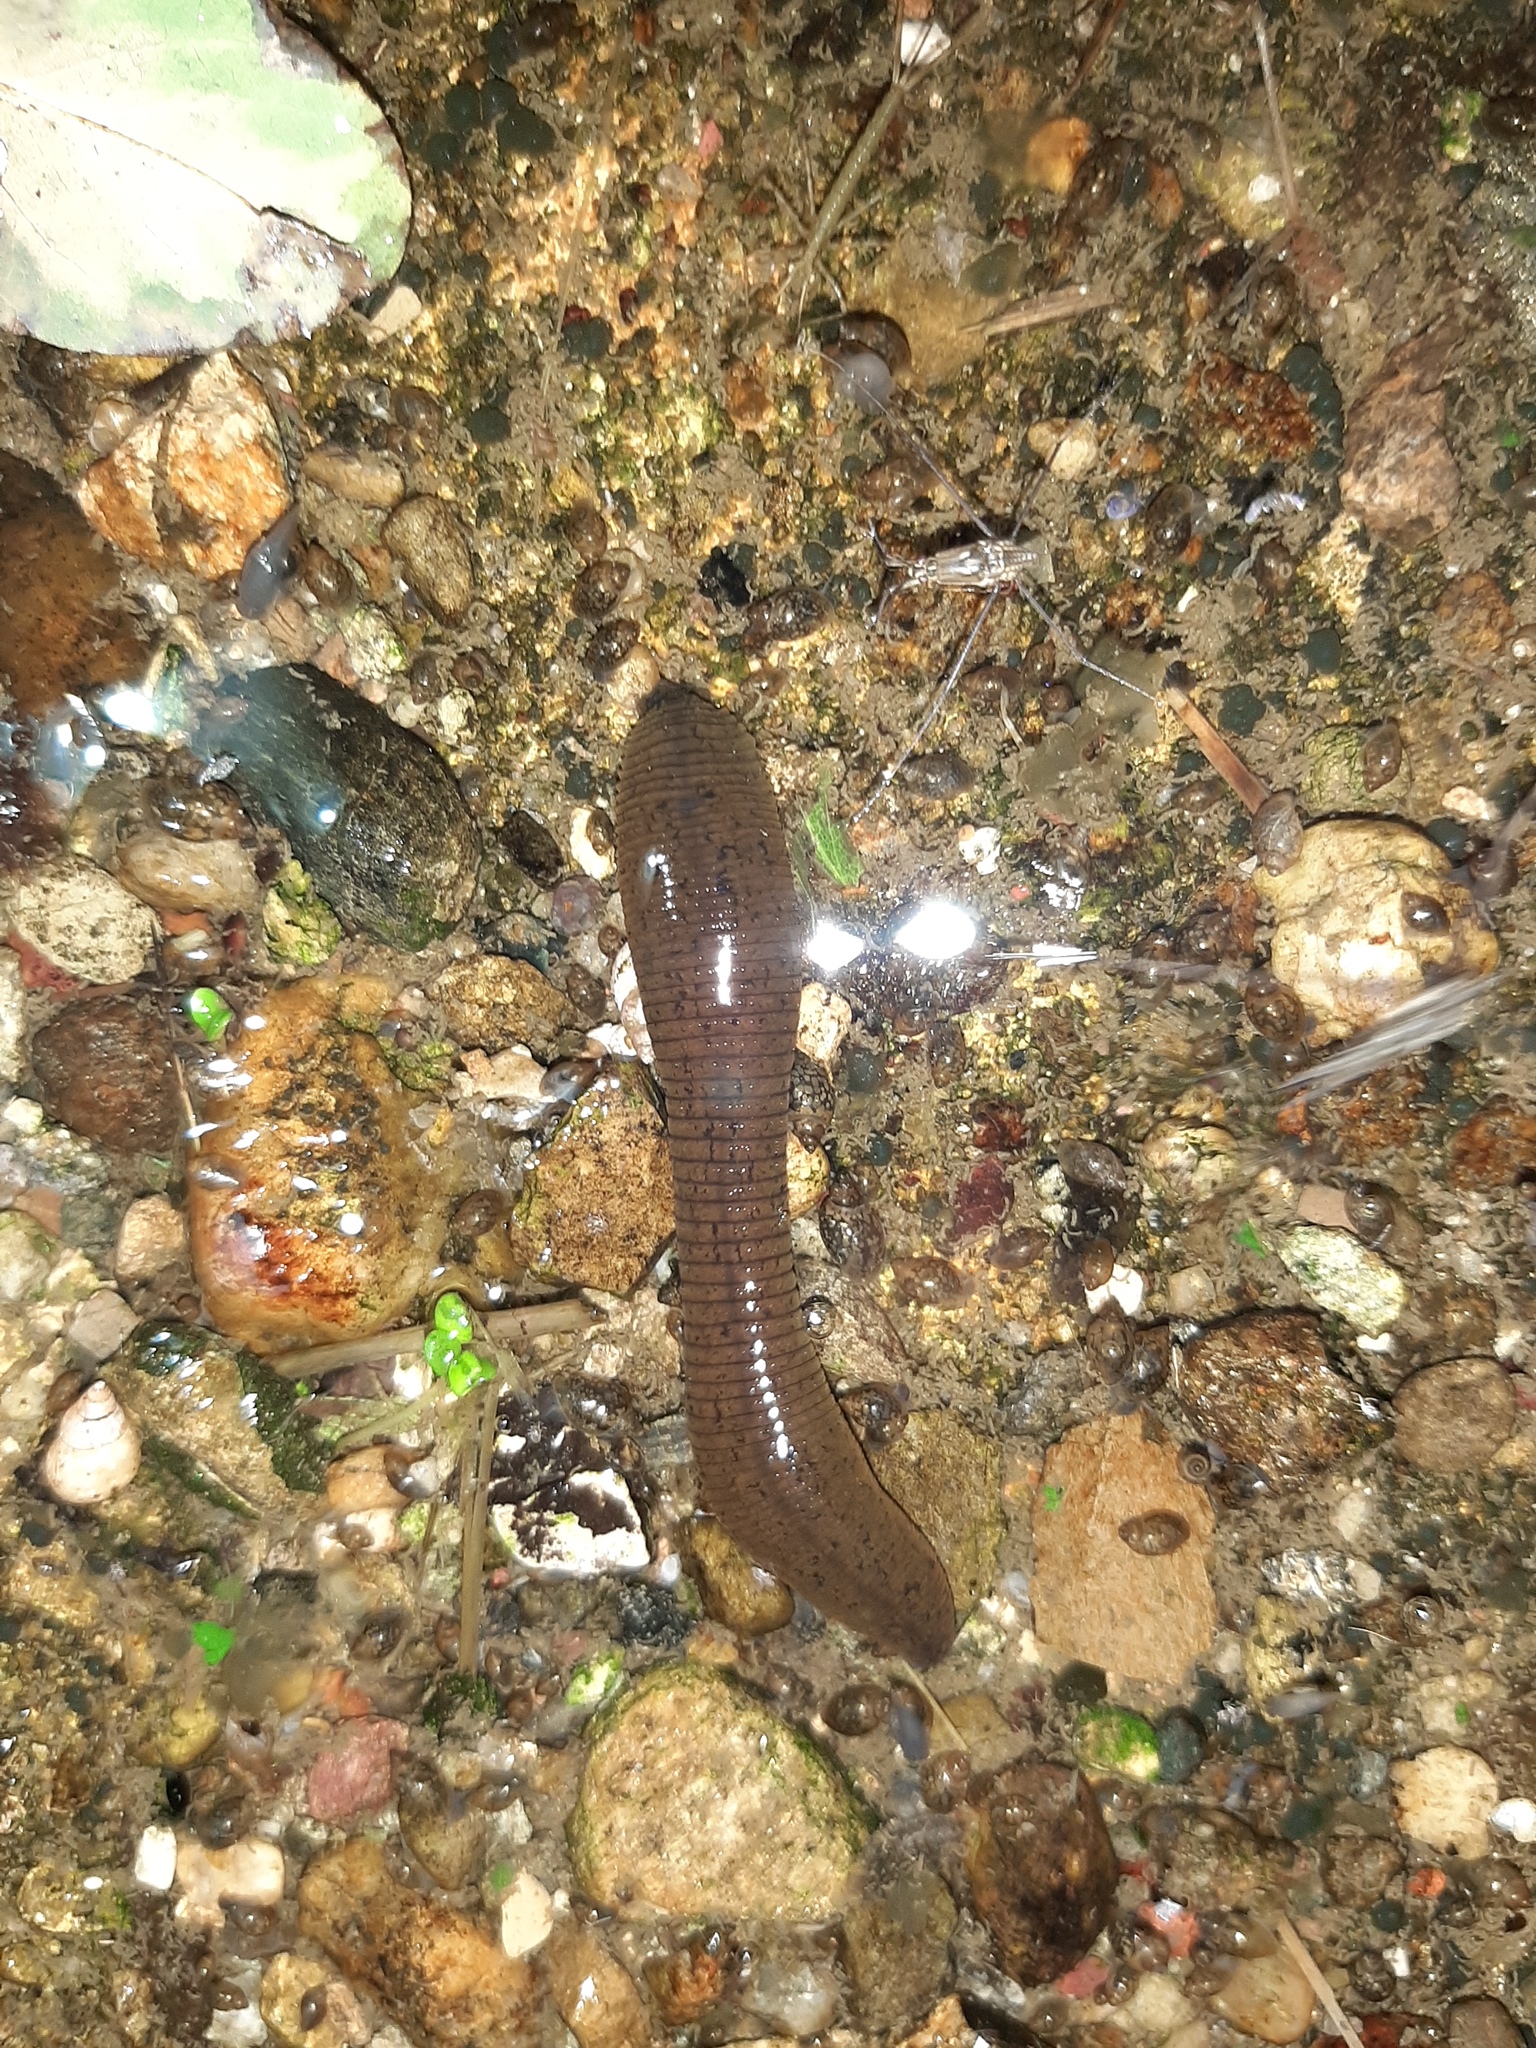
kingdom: Animalia
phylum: Annelida
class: Clitellata
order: Arhynchobdellida
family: Haemopidae
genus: Haemopis
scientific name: Haemopis sanguisuga
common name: Horse leech
